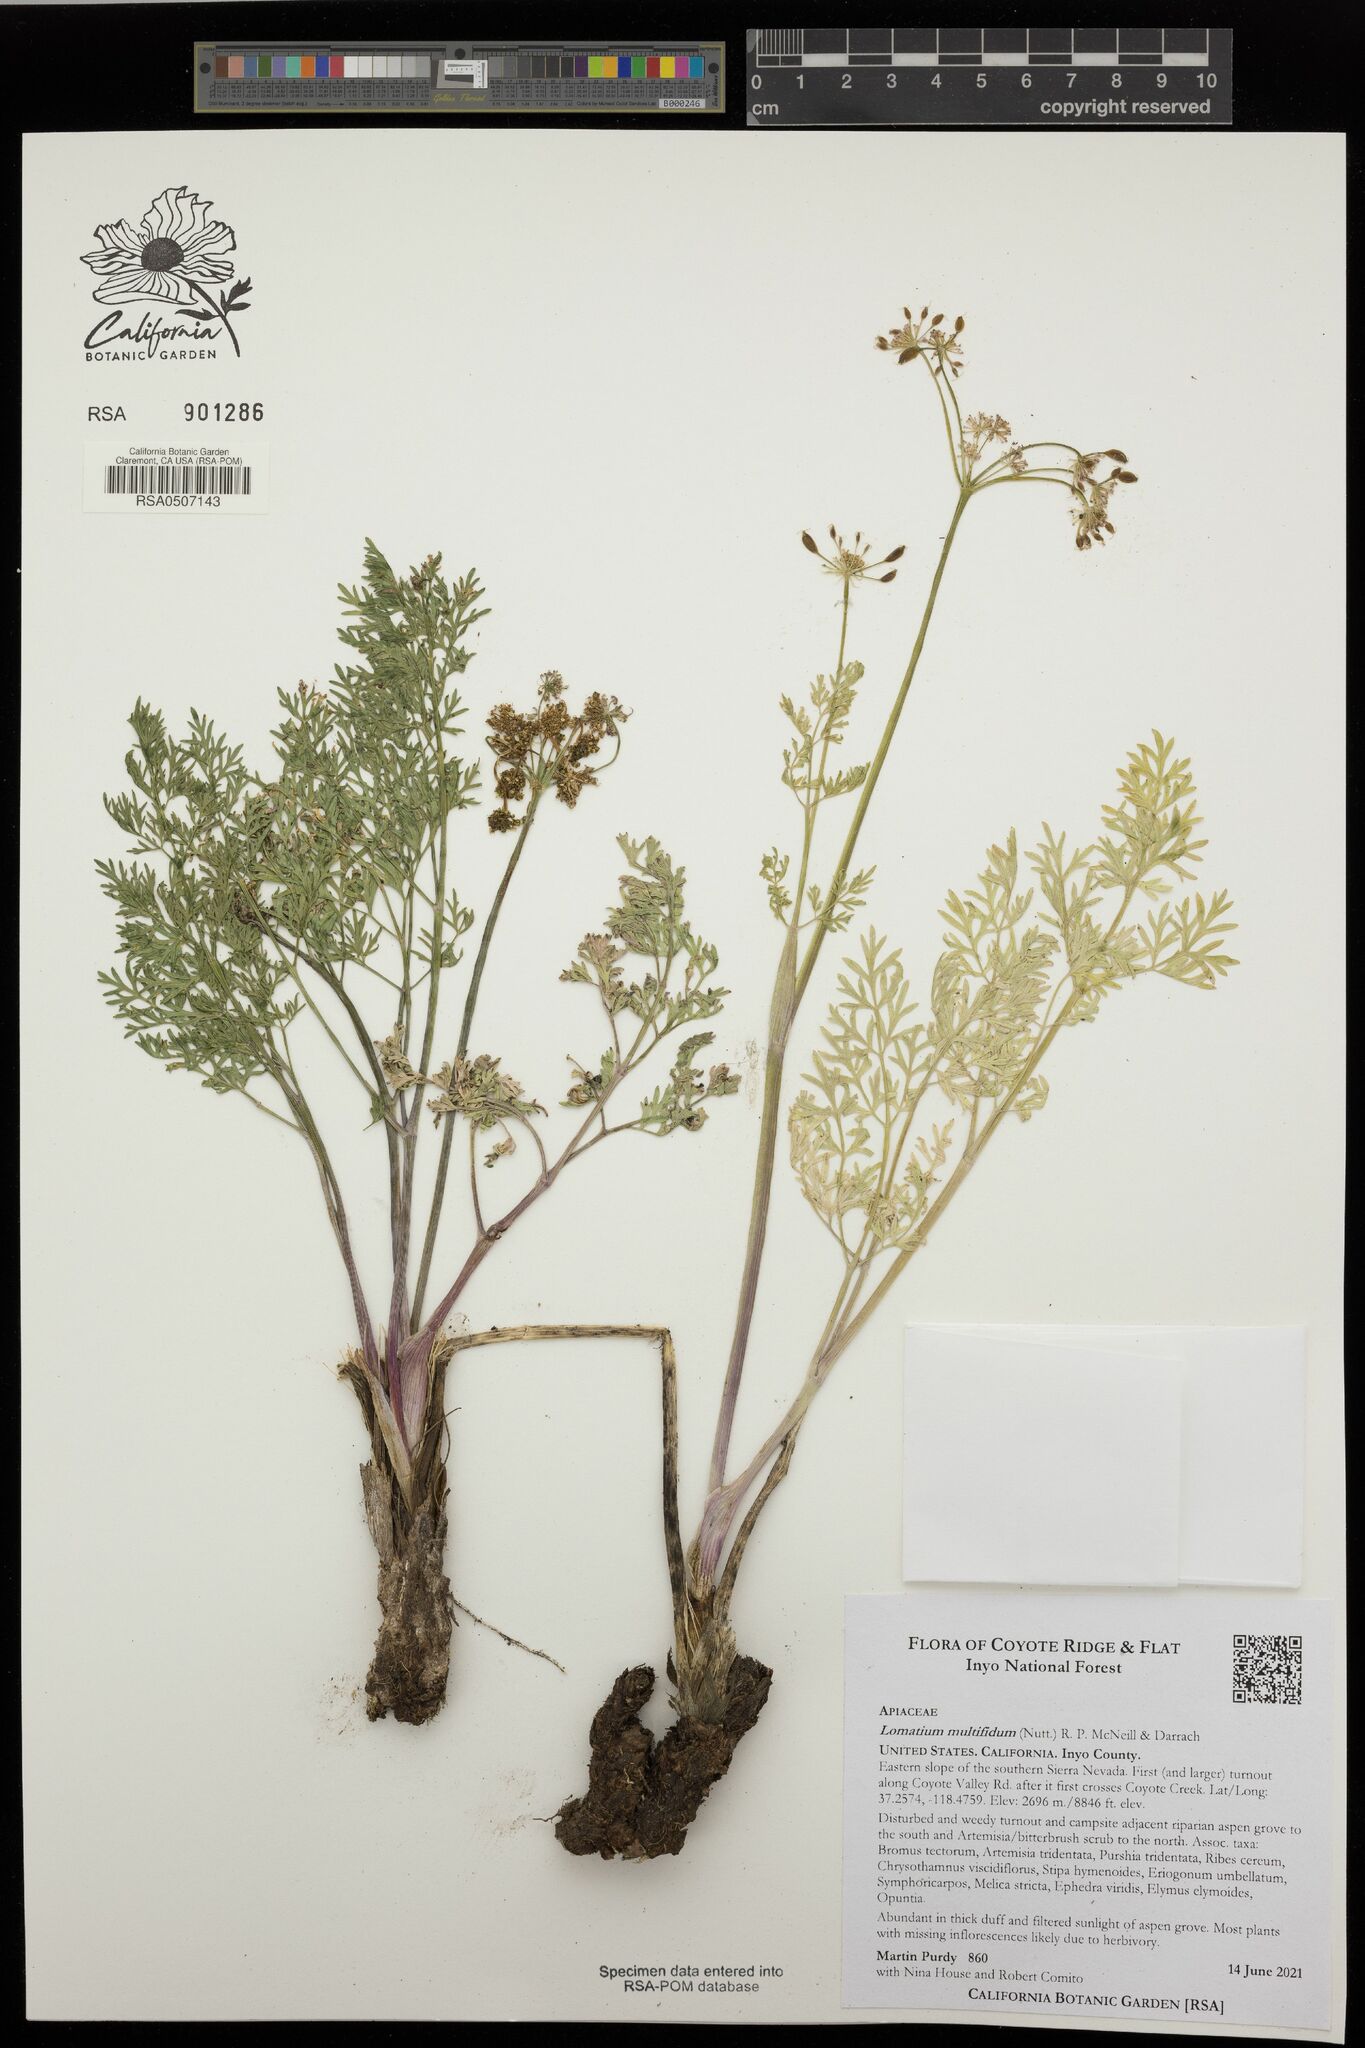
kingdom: Plantae
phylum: Tracheophyta
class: Magnoliopsida
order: Apiales
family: Apiaceae
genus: Lomatium
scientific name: Lomatium multifidum
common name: Carrot-leaved biscuitroot
